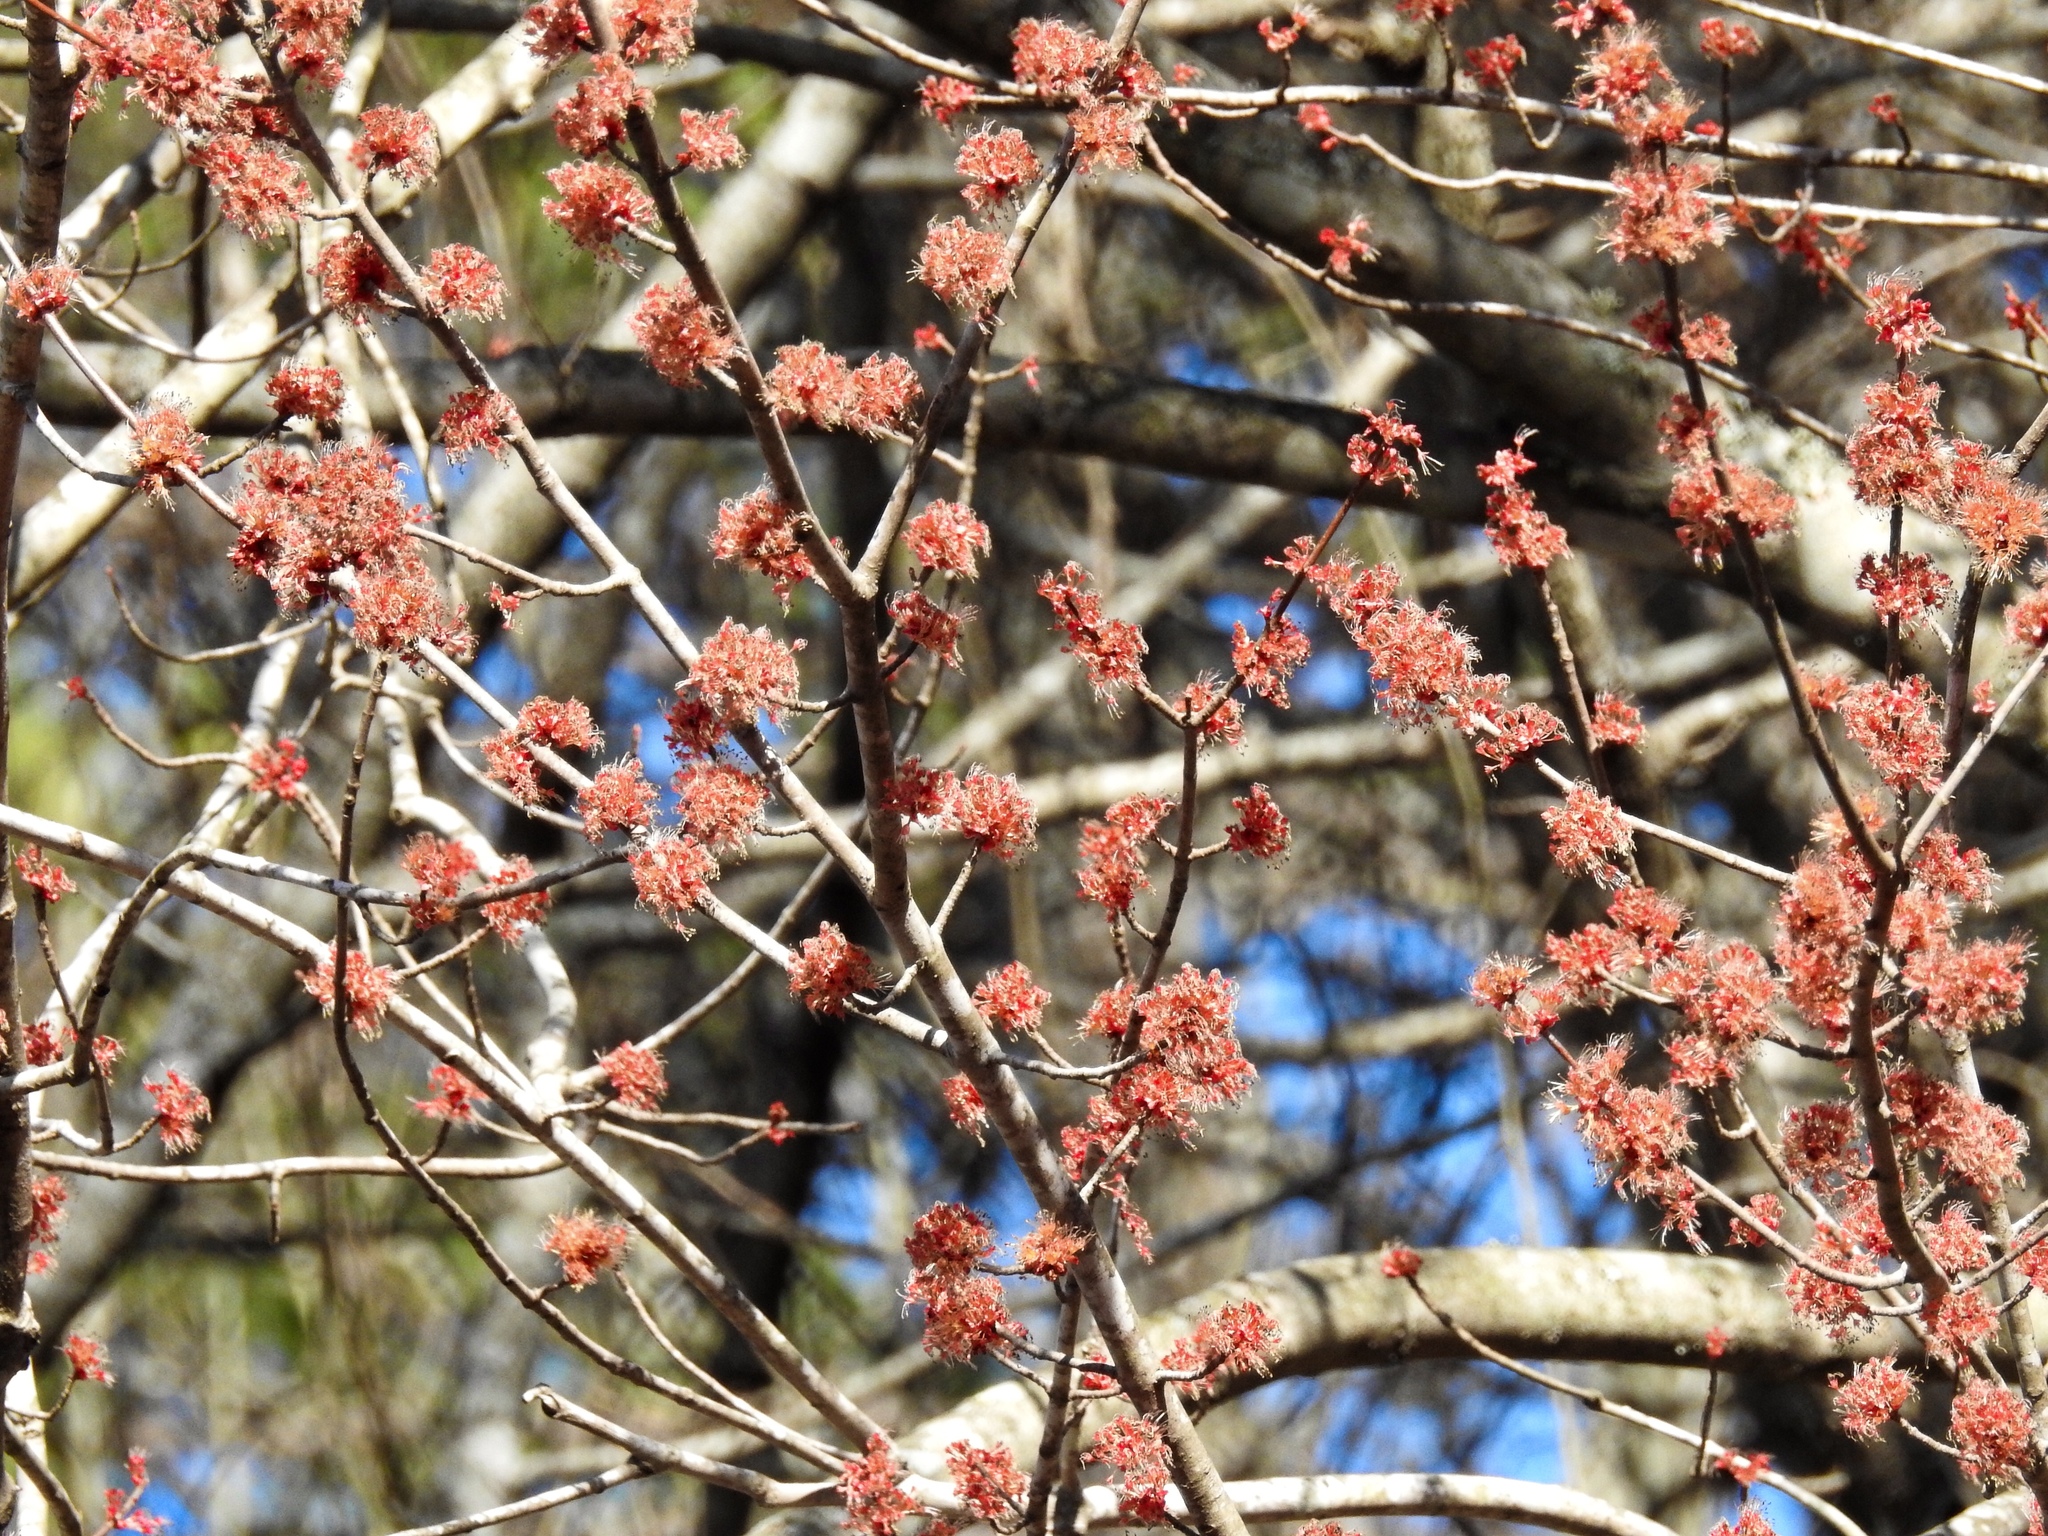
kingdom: Plantae
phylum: Tracheophyta
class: Magnoliopsida
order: Sapindales
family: Sapindaceae
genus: Acer
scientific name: Acer rubrum
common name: Red maple
